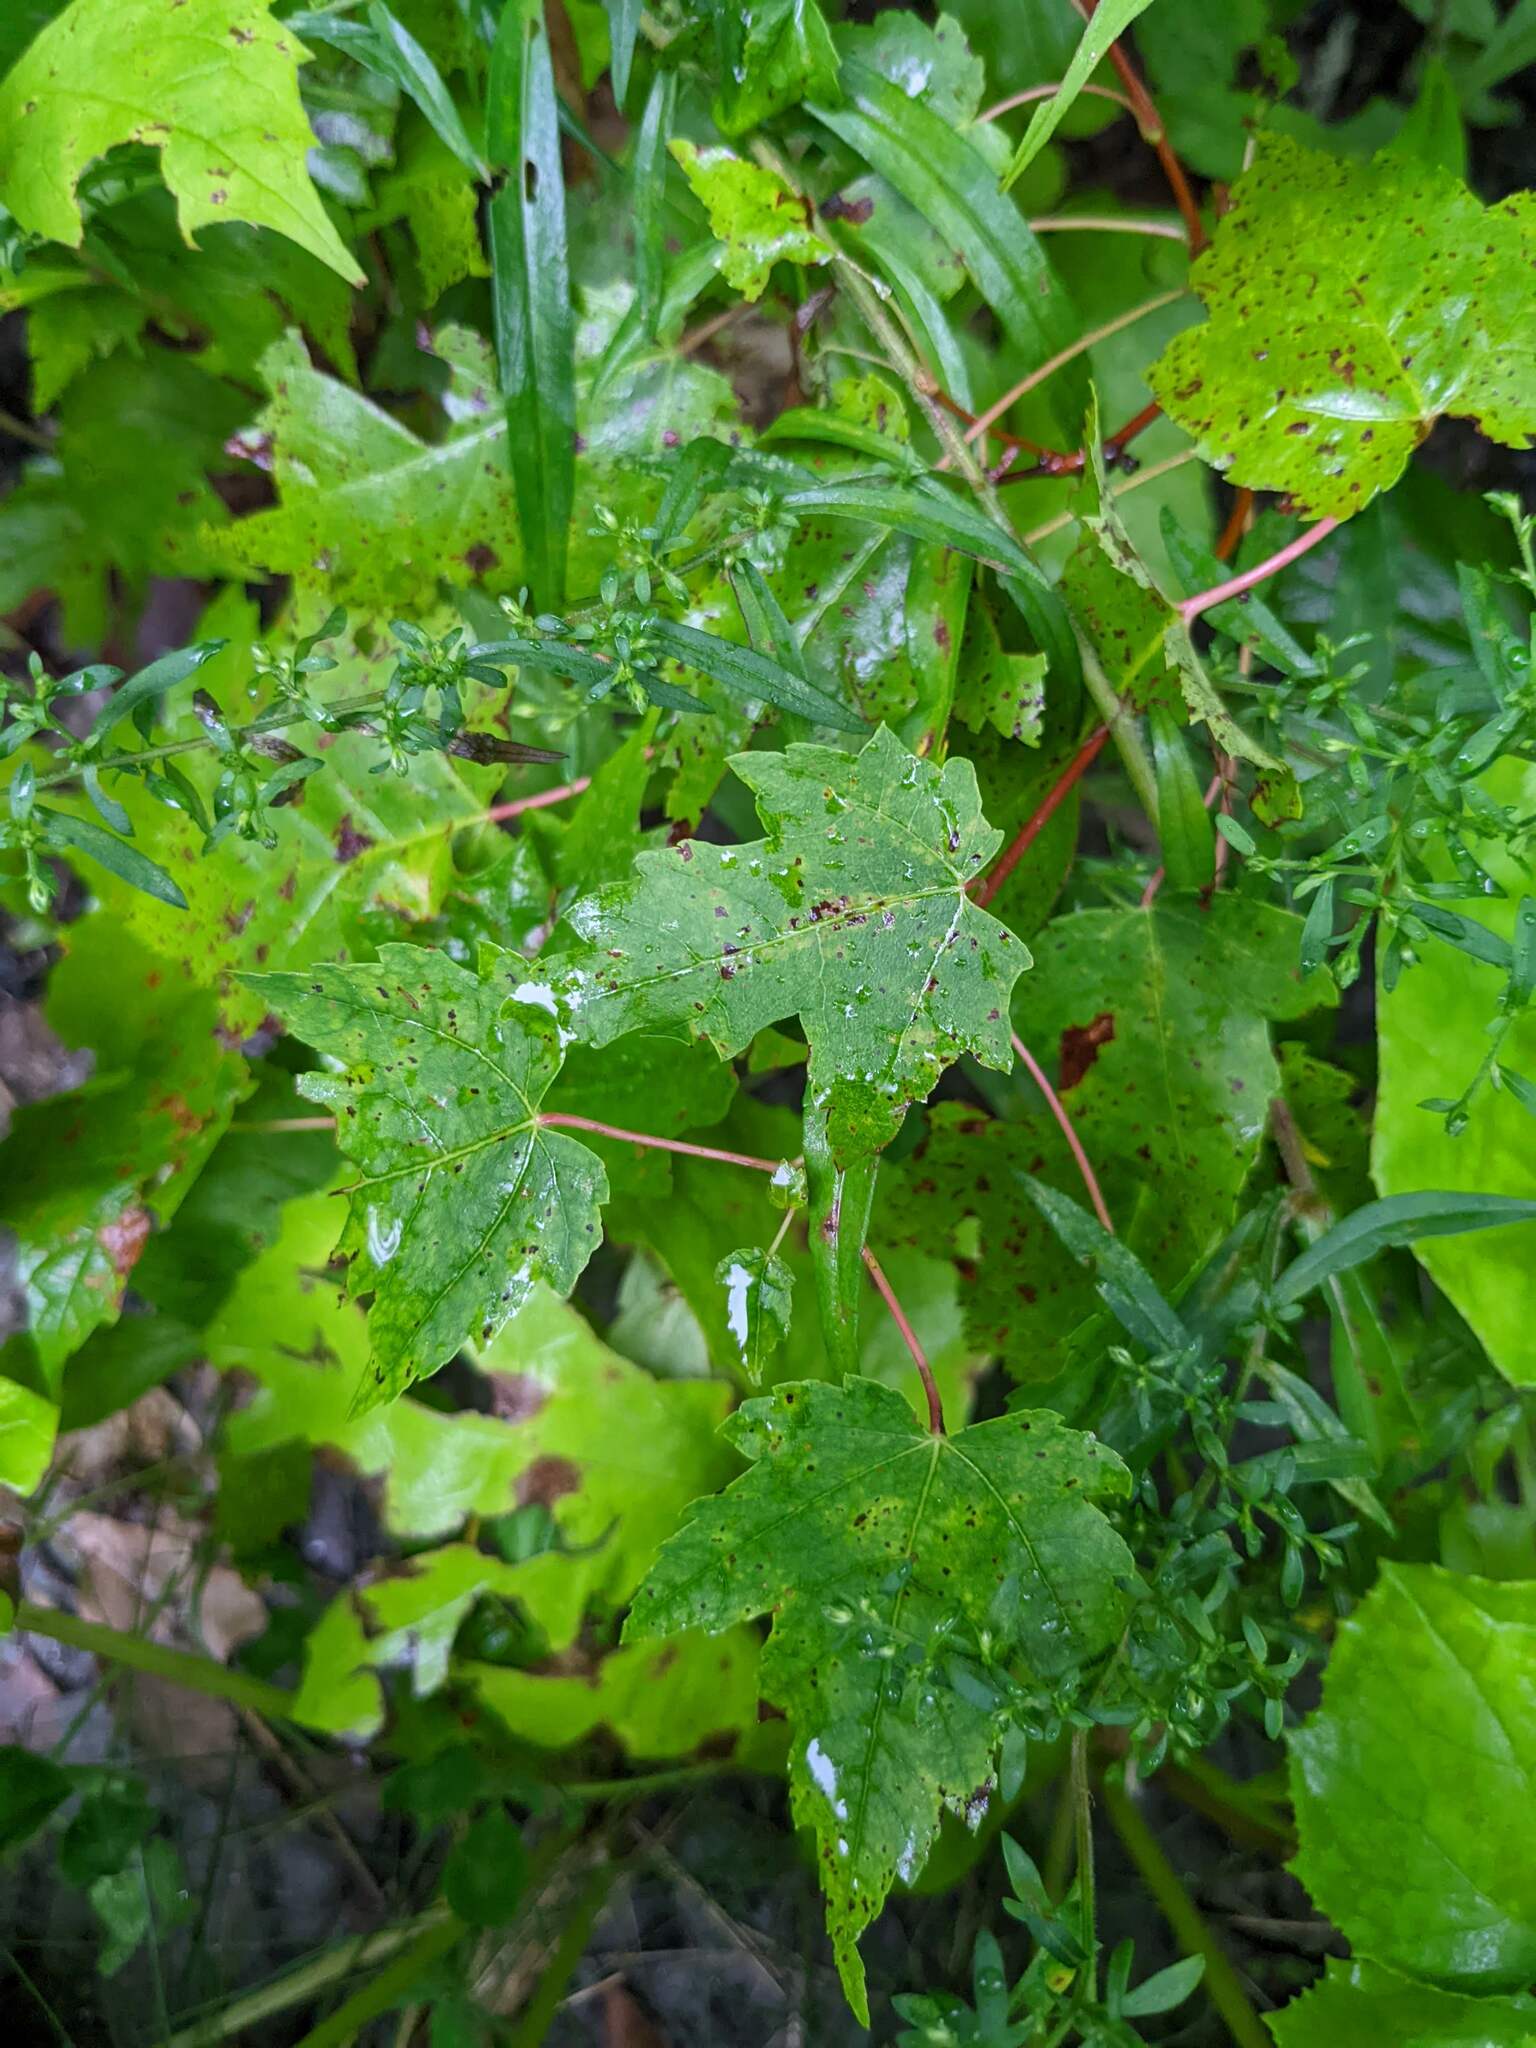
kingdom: Plantae
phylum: Tracheophyta
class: Magnoliopsida
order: Sapindales
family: Sapindaceae
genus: Acer
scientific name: Acer rubrum
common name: Red maple
